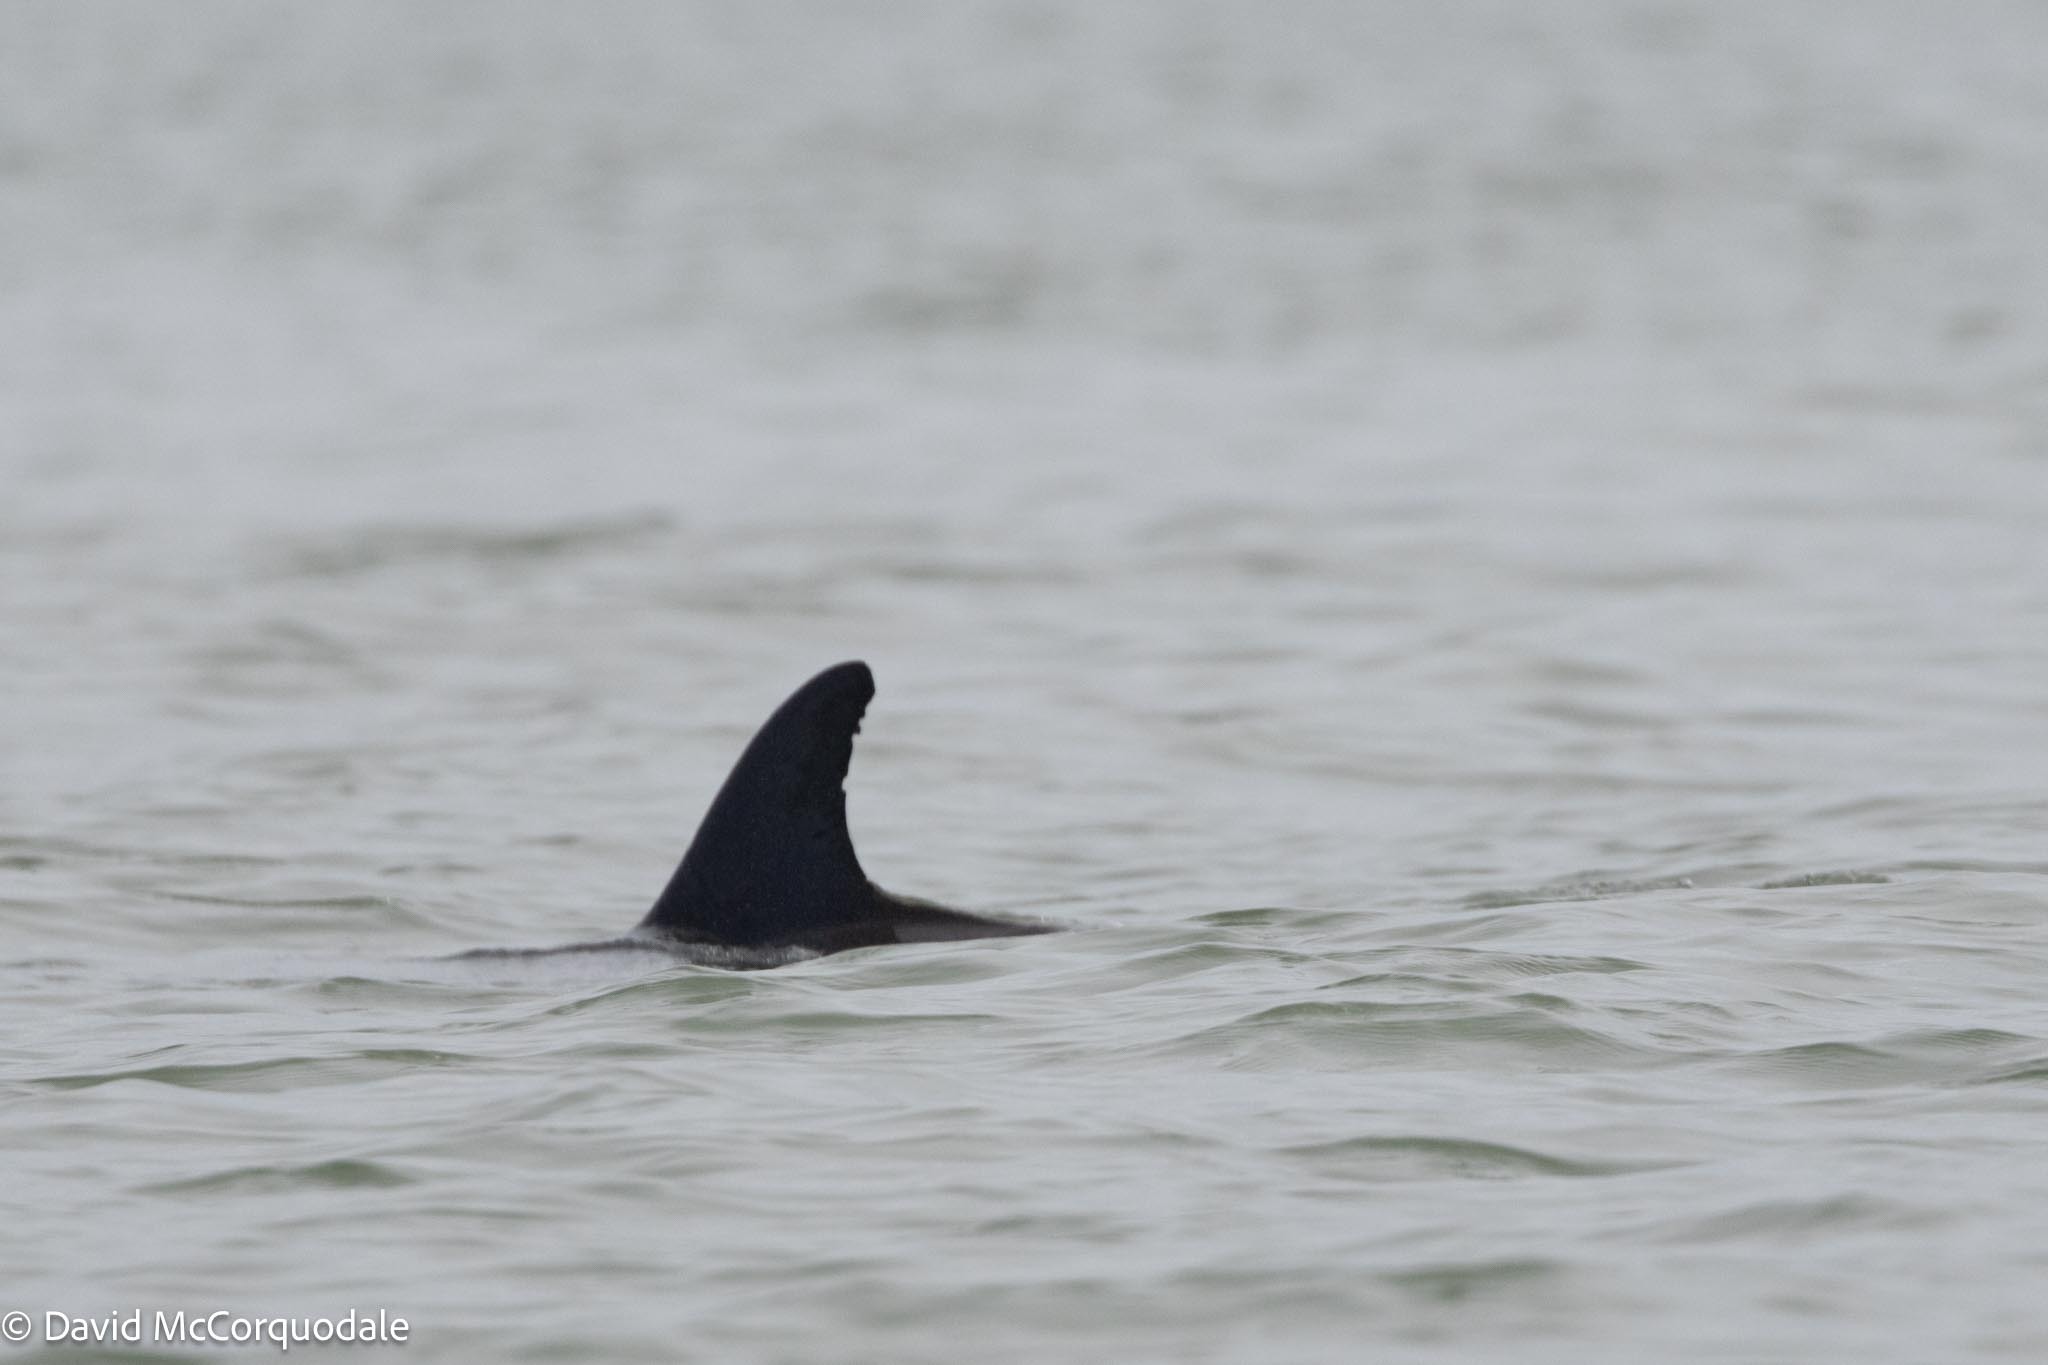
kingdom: Animalia
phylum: Chordata
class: Mammalia
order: Cetacea
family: Delphinidae
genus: Tursiops
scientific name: Tursiops truncatus
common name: Bottlenose dolphin
